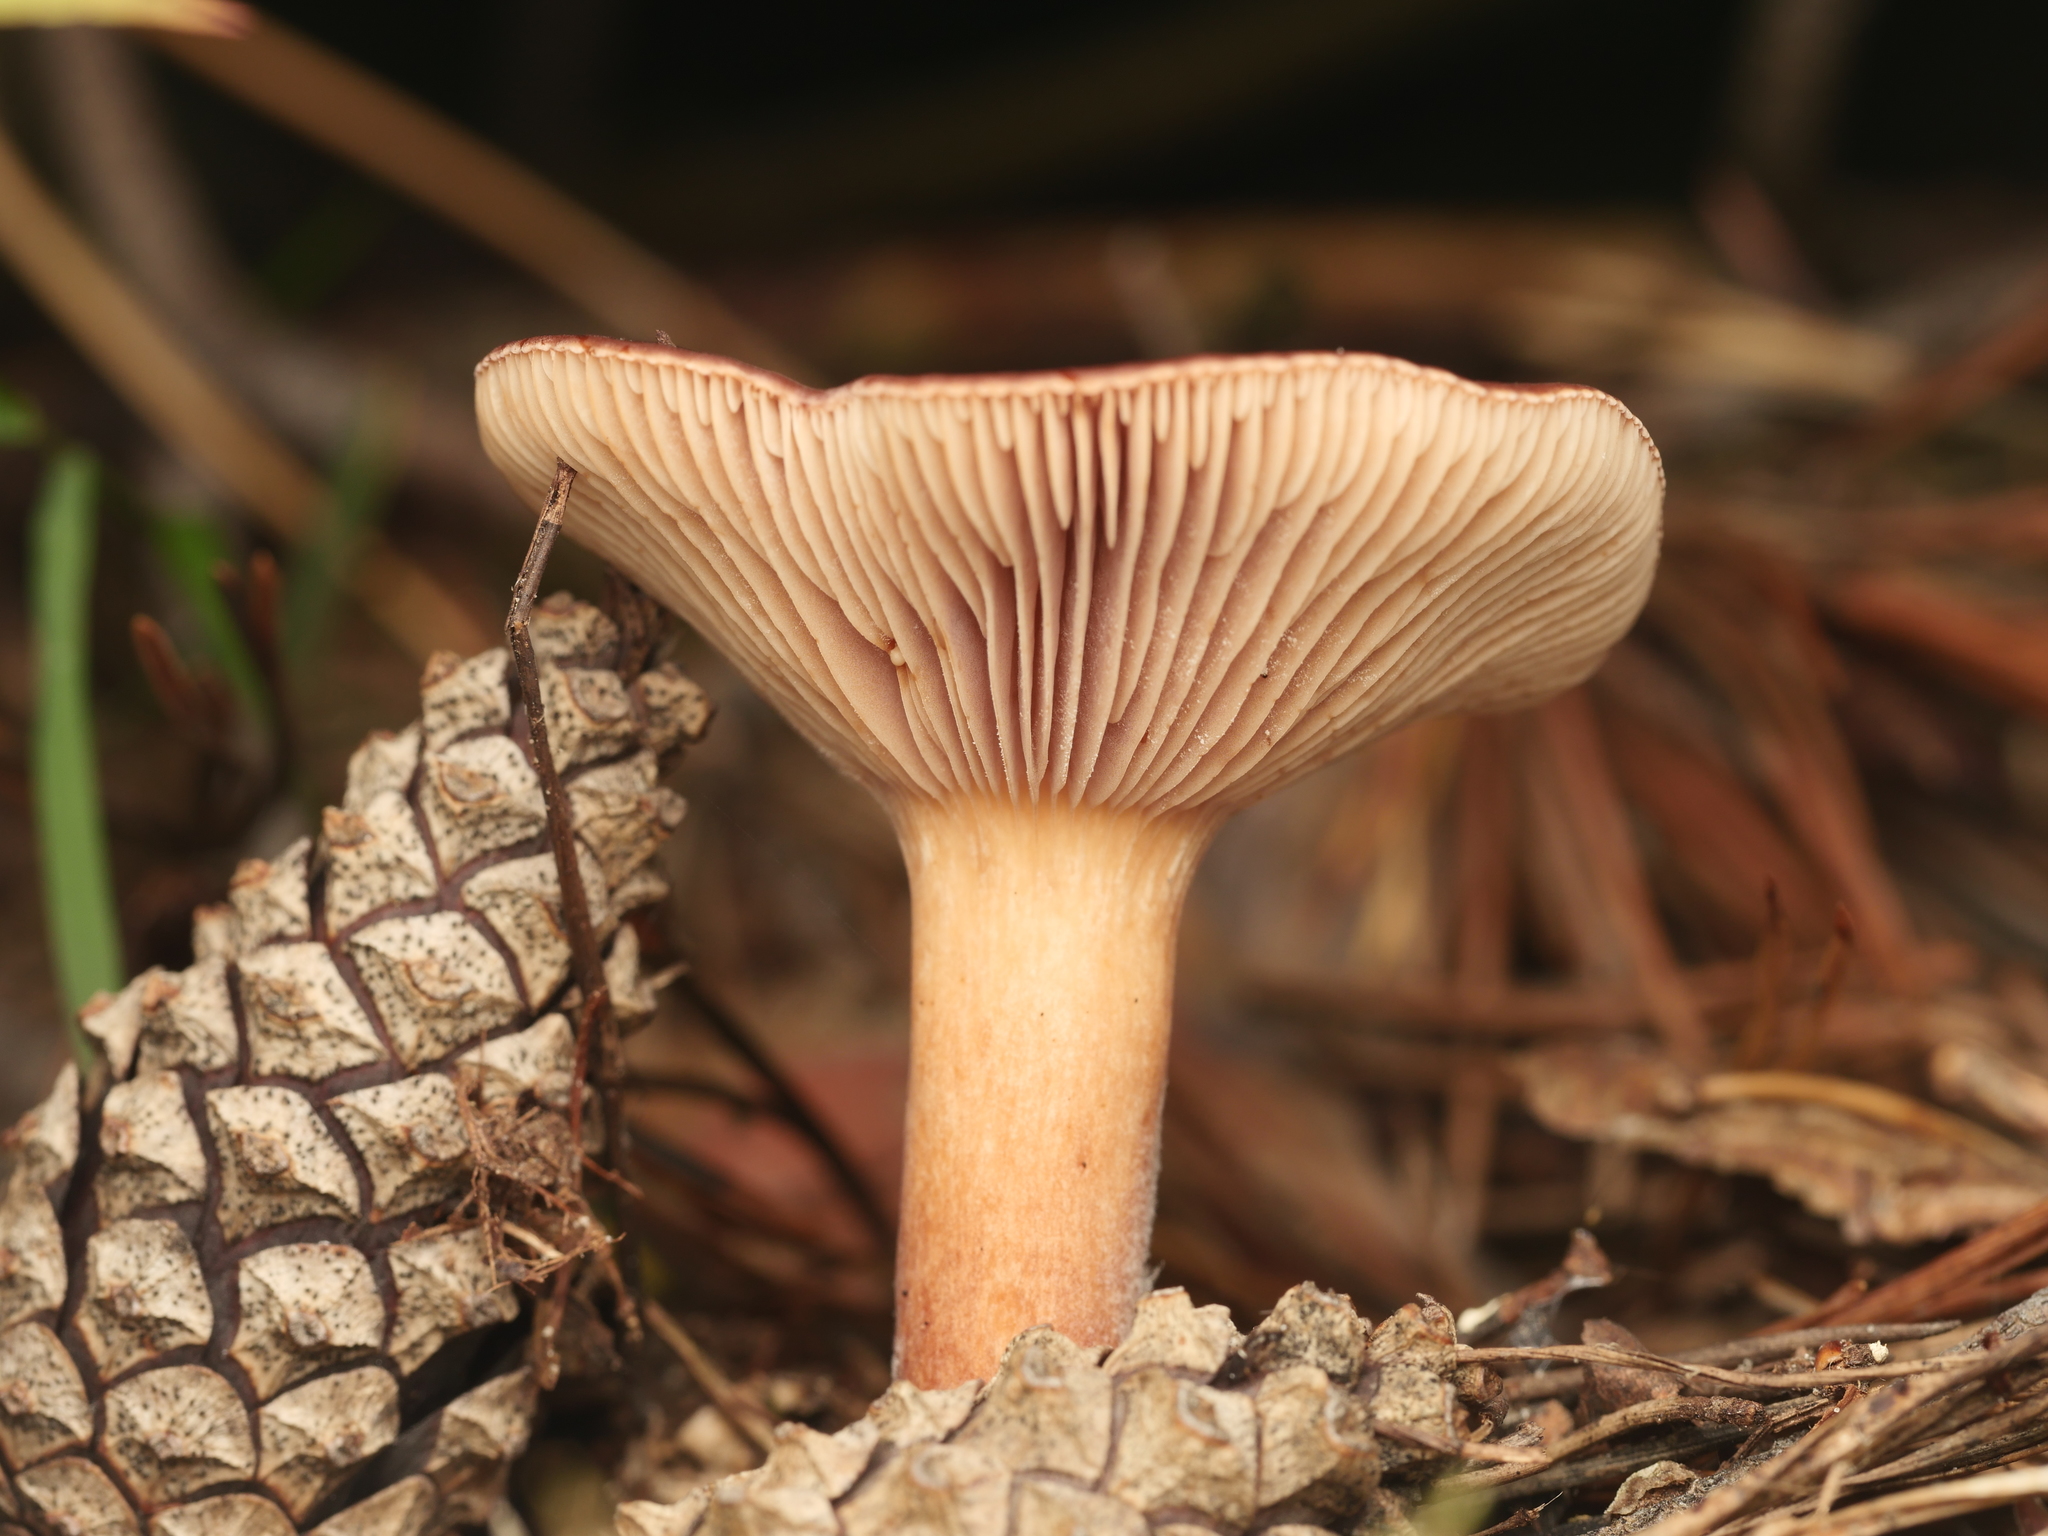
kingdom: Fungi
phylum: Basidiomycota
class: Agaricomycetes
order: Russulales
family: Russulaceae
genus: Lactarius
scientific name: Lactarius rufus
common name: Rufous milk-cap
